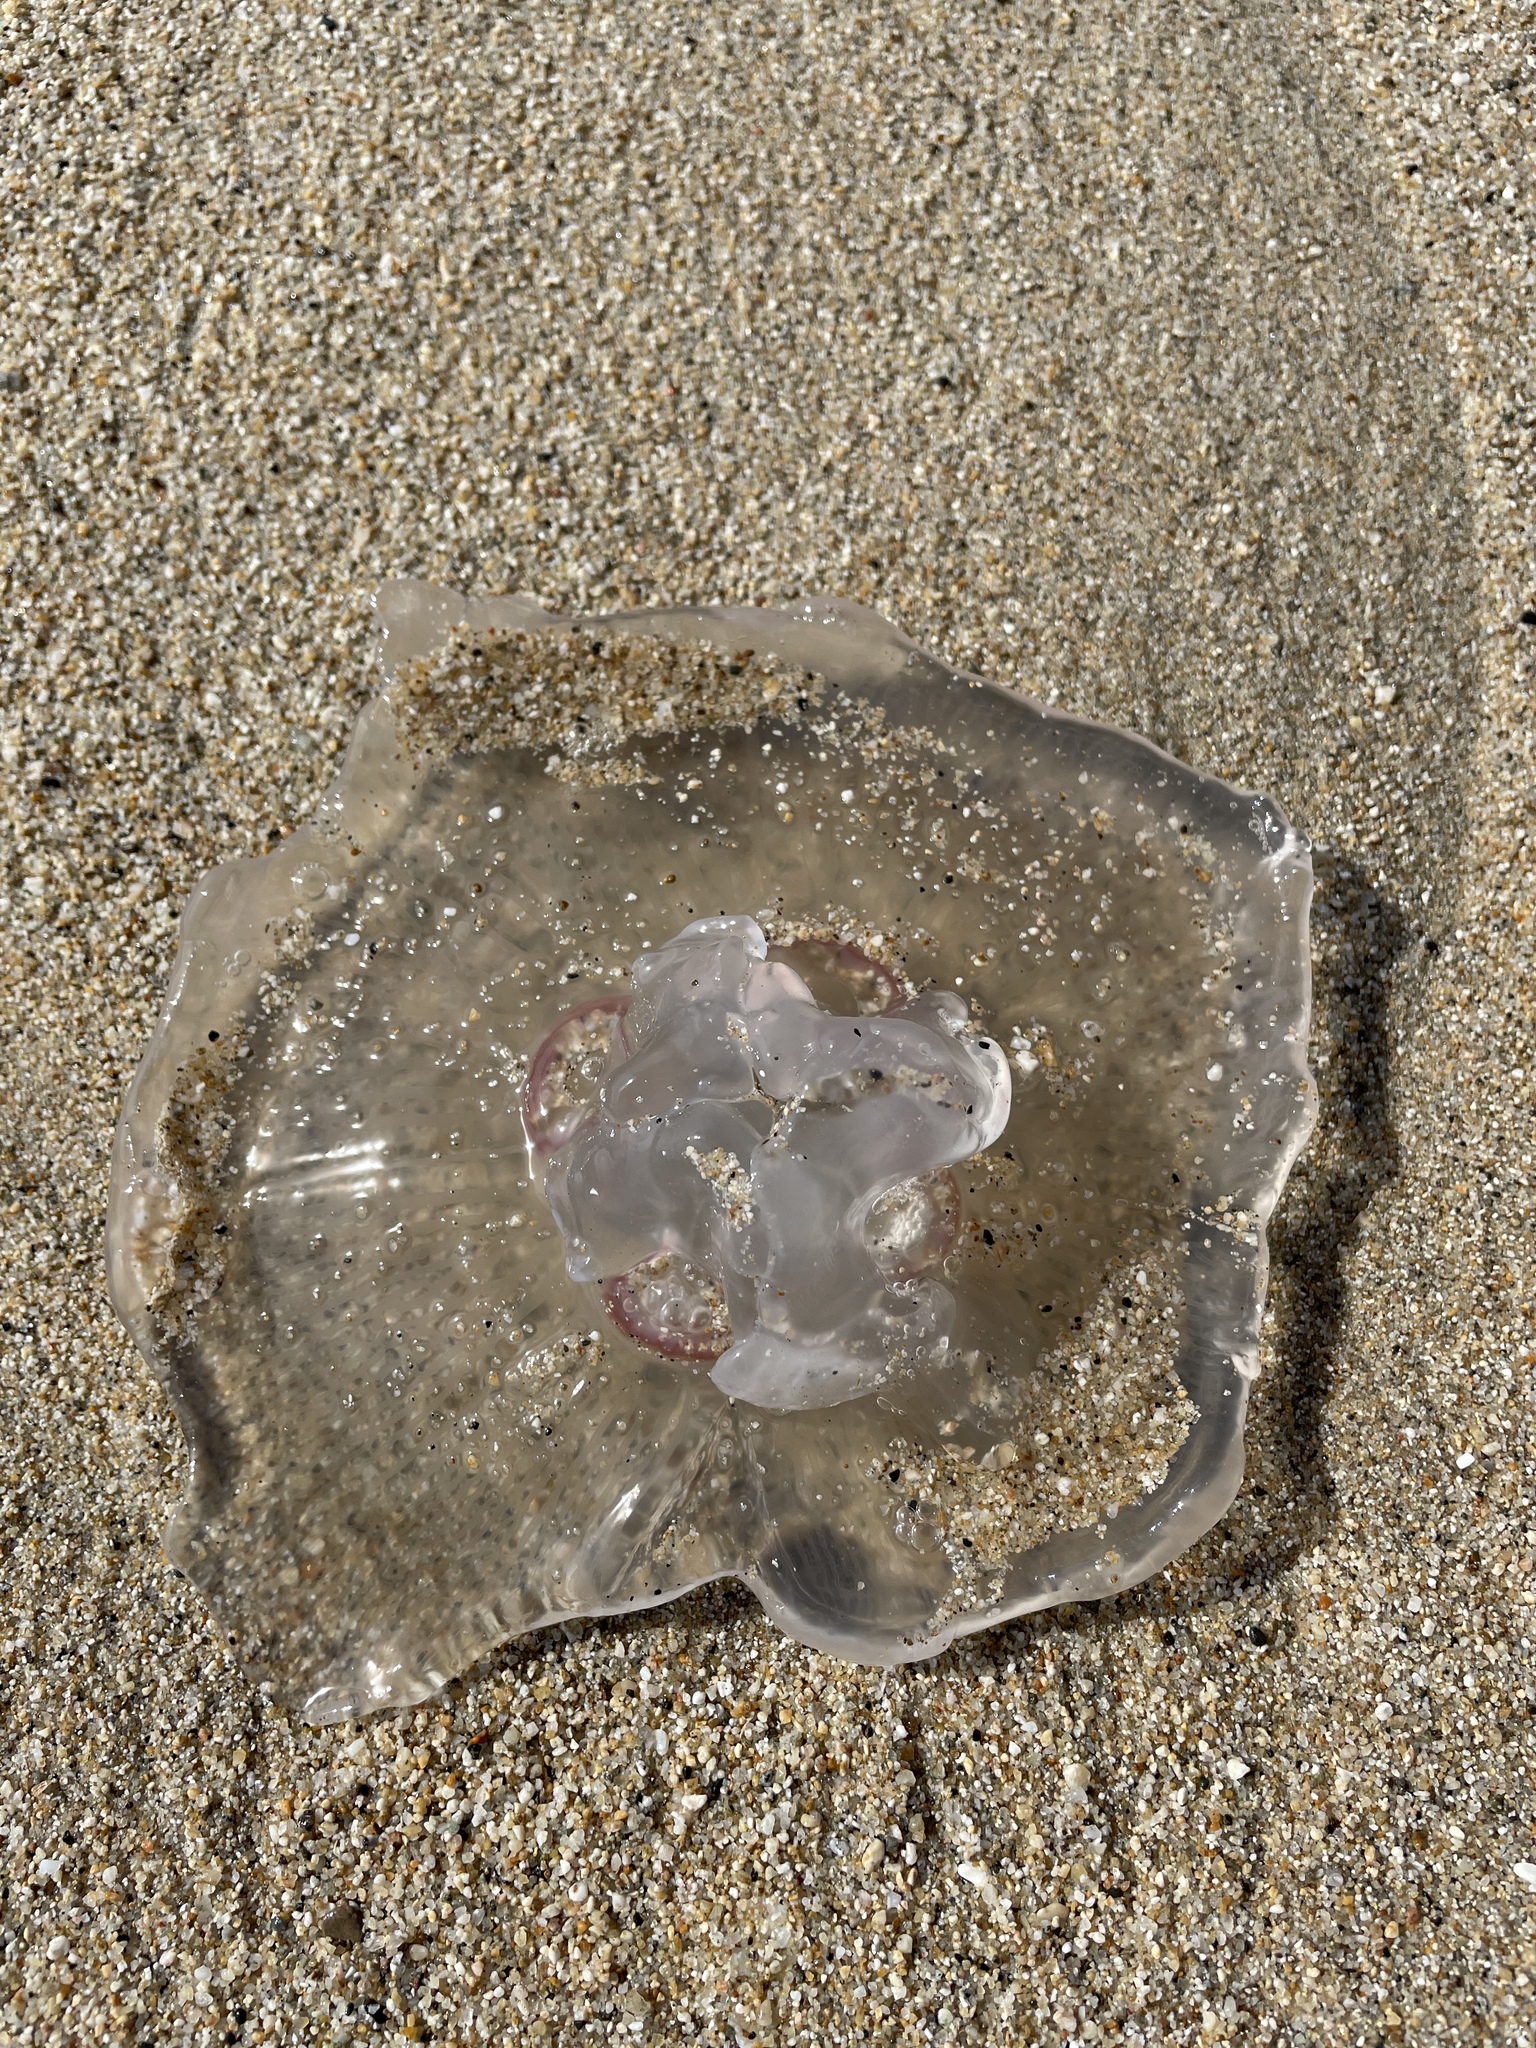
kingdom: Animalia
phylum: Cnidaria
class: Scyphozoa
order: Semaeostomeae
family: Ulmaridae
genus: Aurelia
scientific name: Aurelia labiata
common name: Pacific moon jelly
